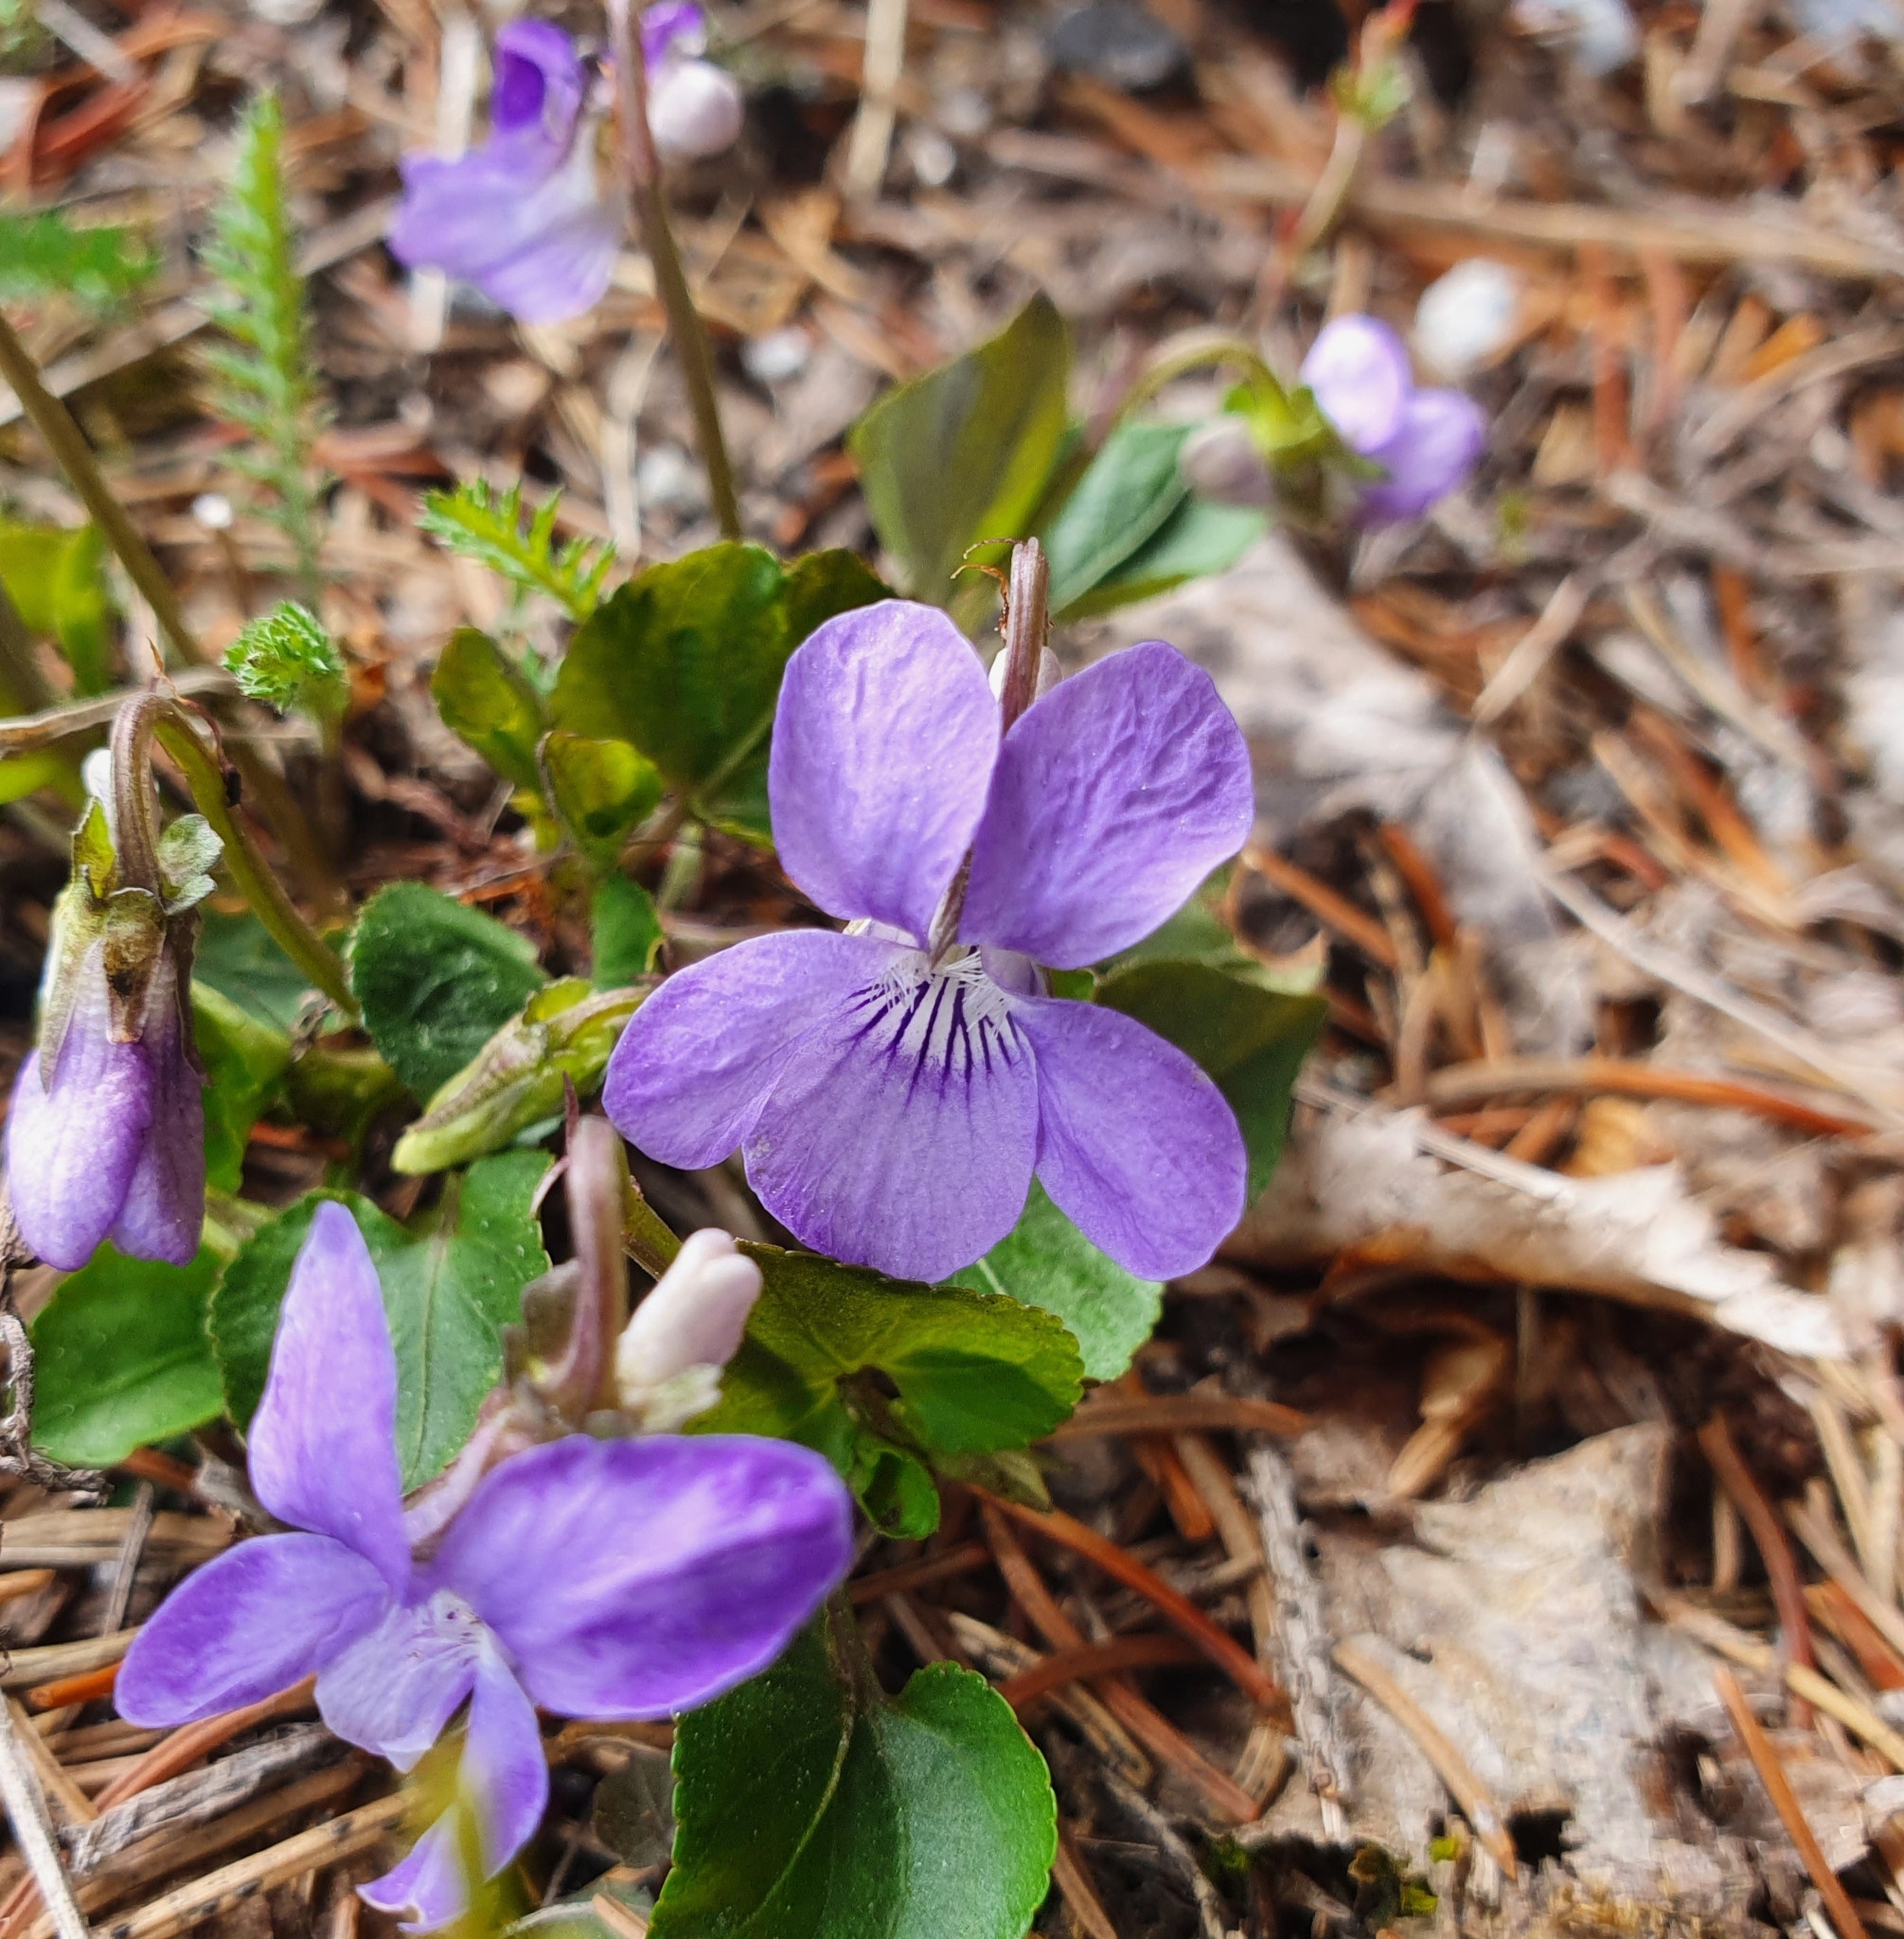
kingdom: Plantae
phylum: Tracheophyta
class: Magnoliopsida
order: Malpighiales
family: Violaceae
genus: Viola
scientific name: Viola riviniana
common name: Common dog-violet
